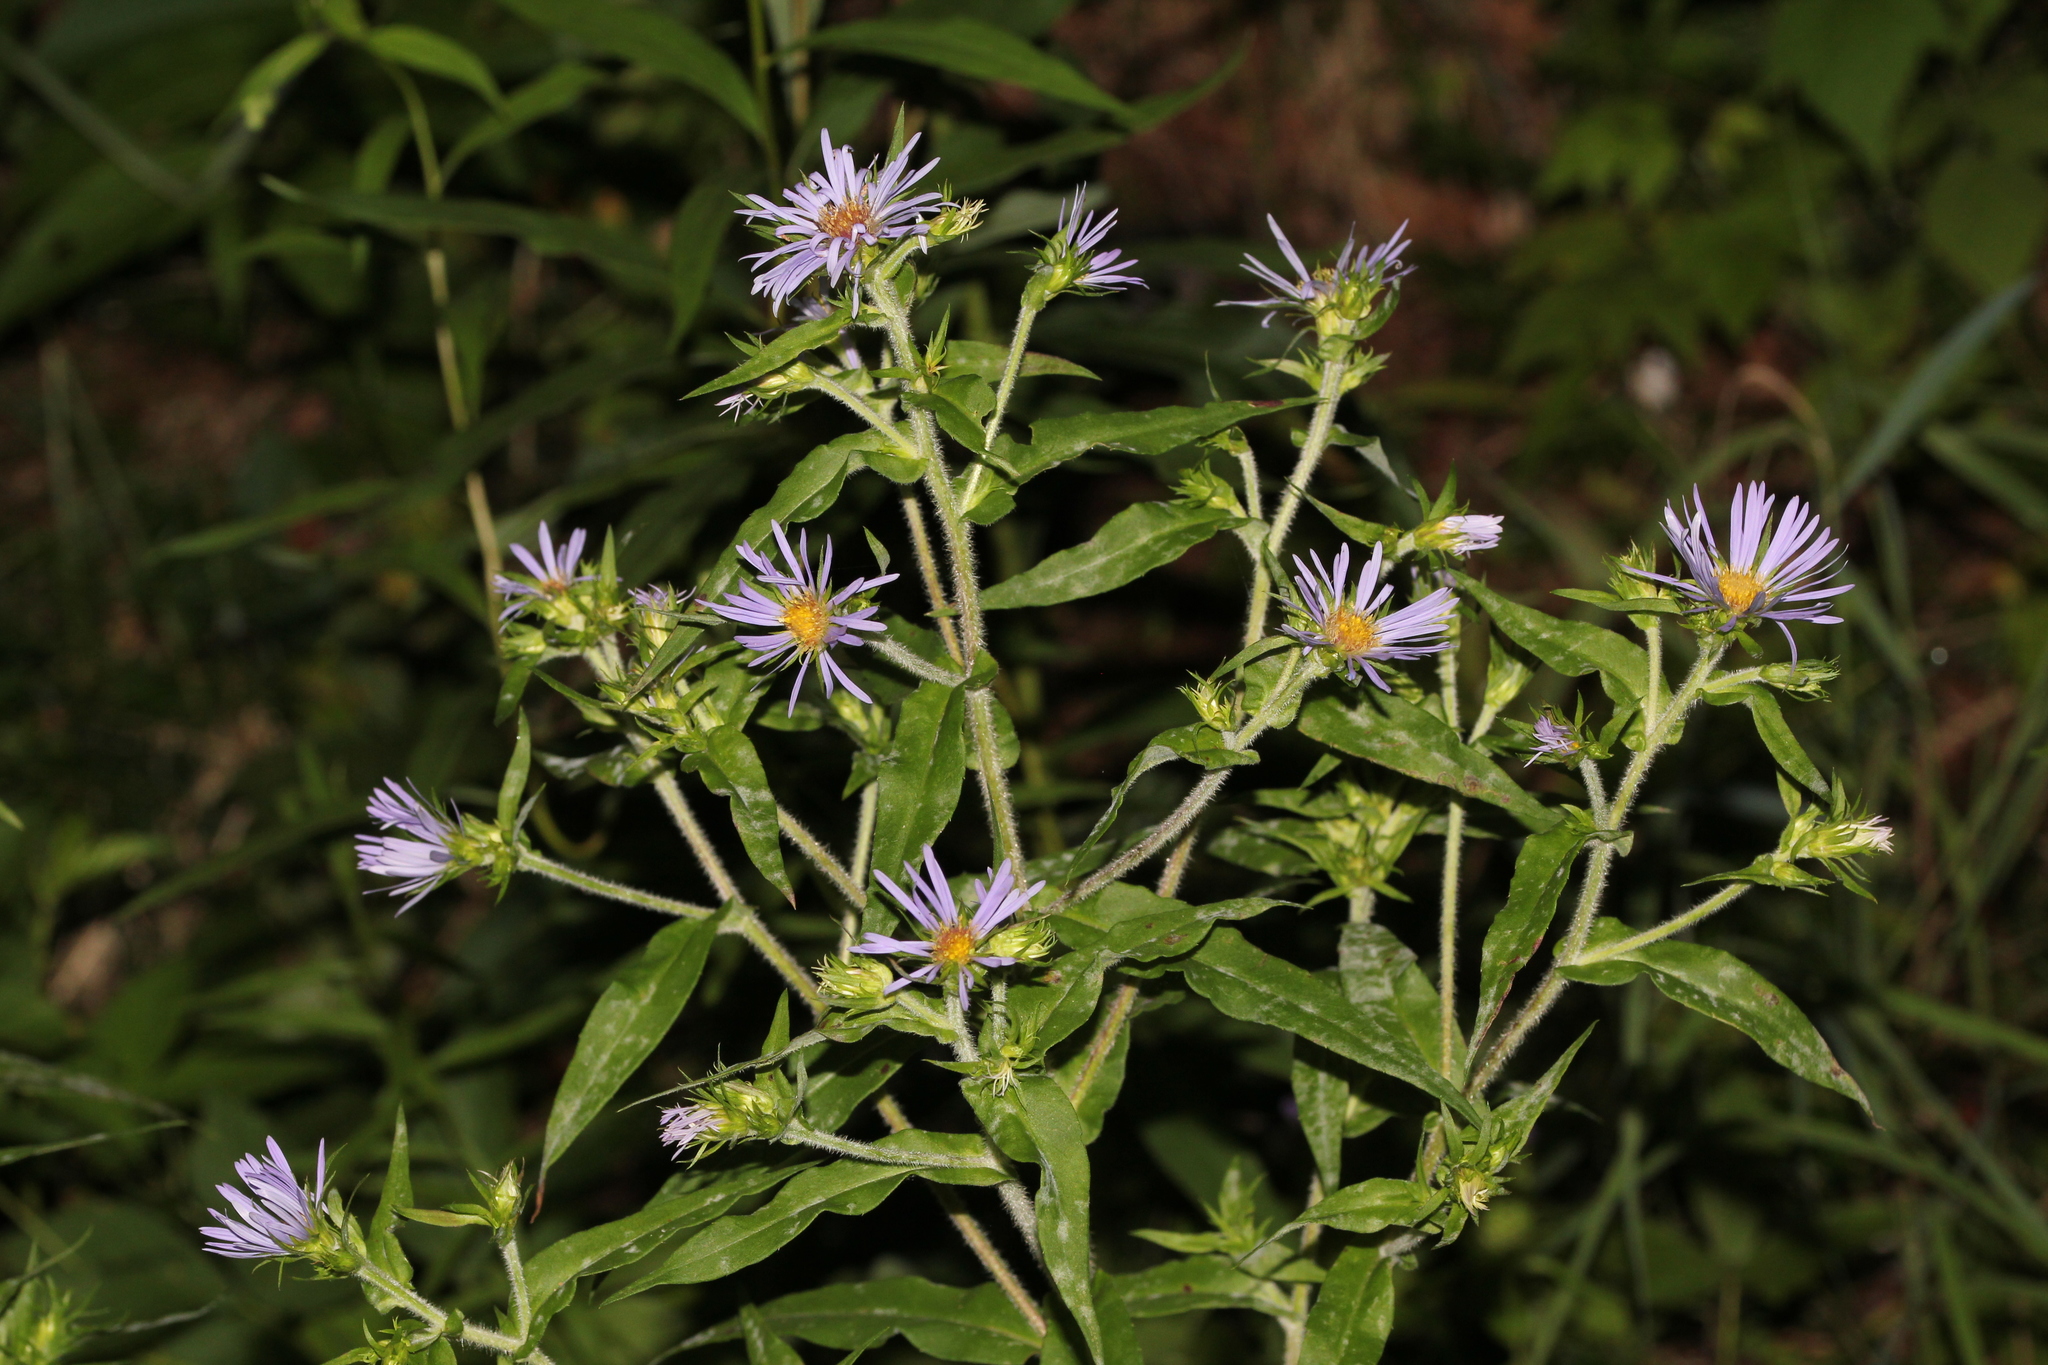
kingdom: Plantae
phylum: Tracheophyta
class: Magnoliopsida
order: Asterales
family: Asteraceae
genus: Symphyotrichum
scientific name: Symphyotrichum puniceum
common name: Bog aster
